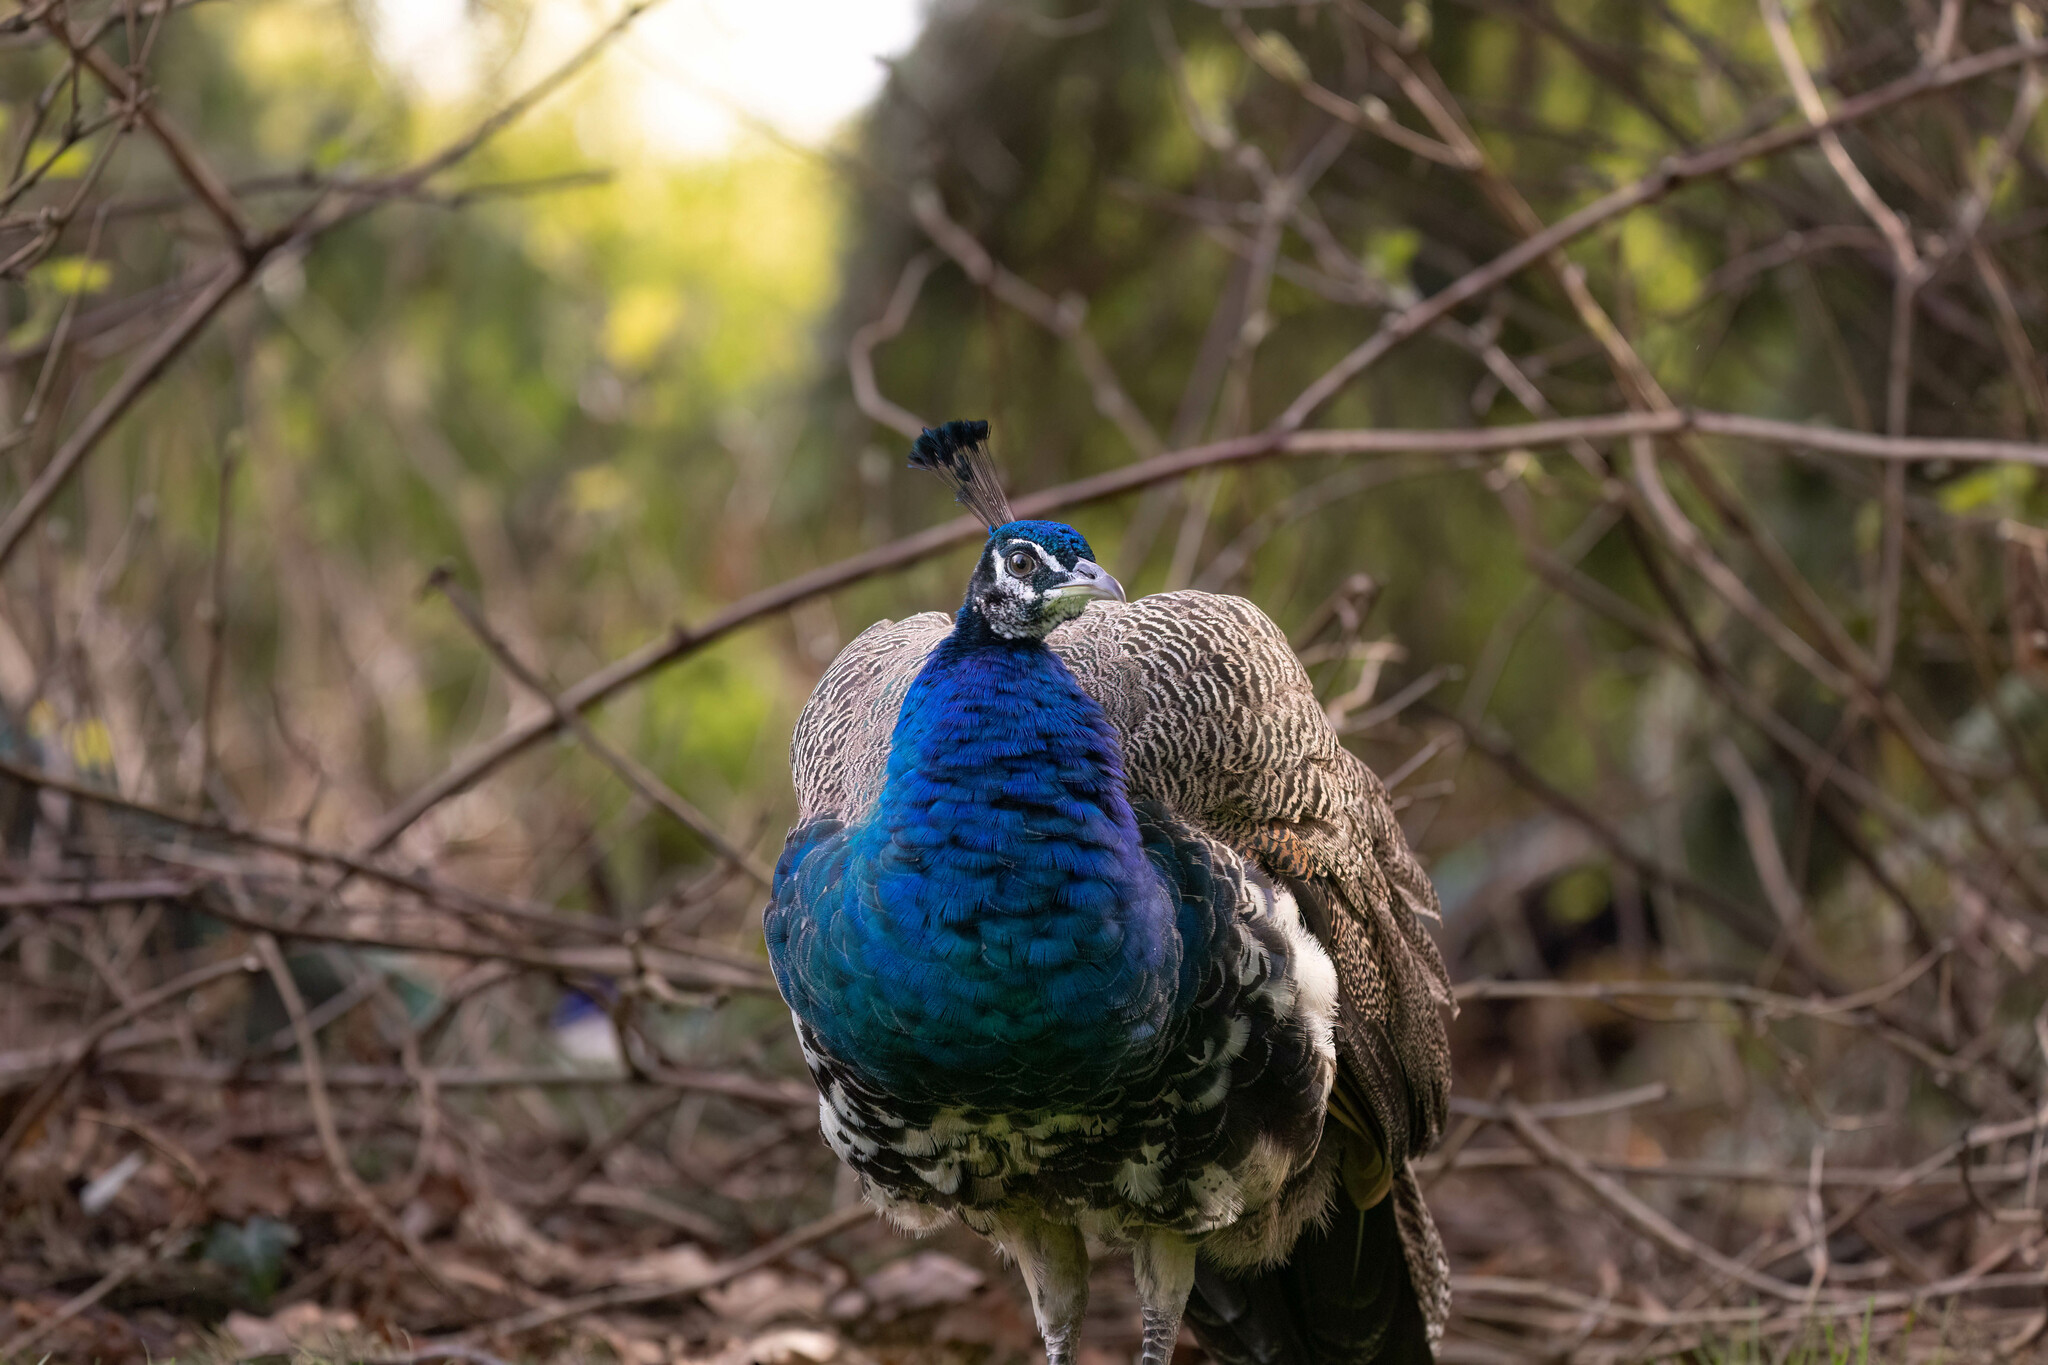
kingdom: Animalia
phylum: Chordata
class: Aves
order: Galliformes
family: Phasianidae
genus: Pavo
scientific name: Pavo cristatus
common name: Indian peafowl
